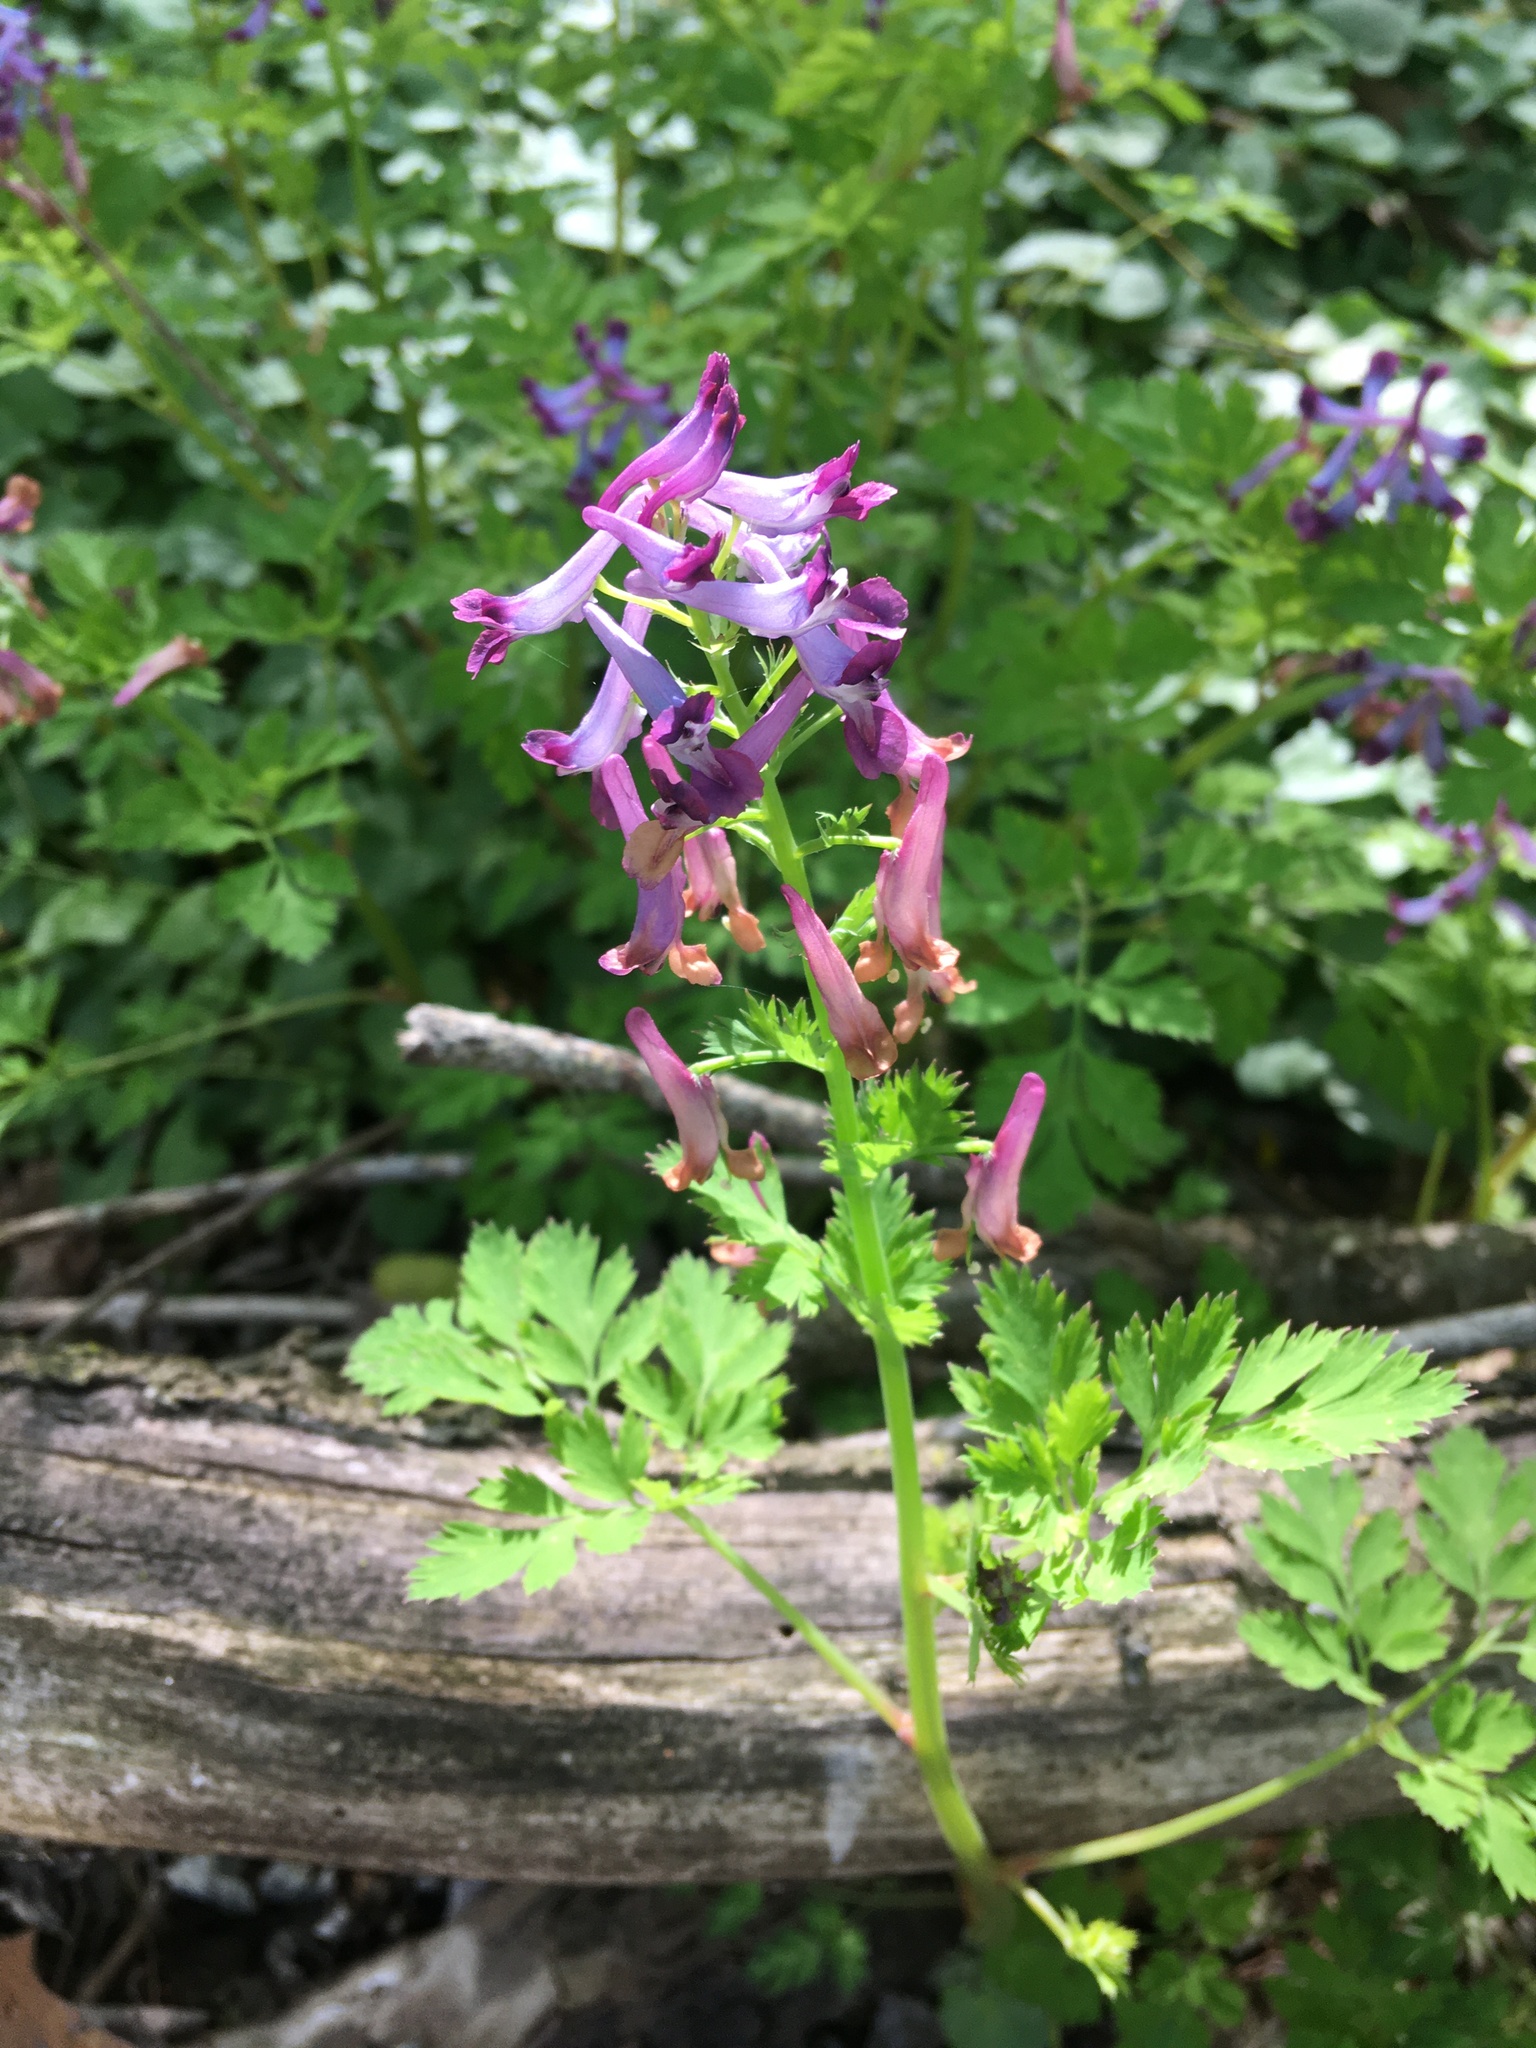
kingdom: Plantae
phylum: Tracheophyta
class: Magnoliopsida
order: Ranunculales
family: Papaveraceae
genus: Corydalis
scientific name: Corydalis incisa
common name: Incised fumewort
